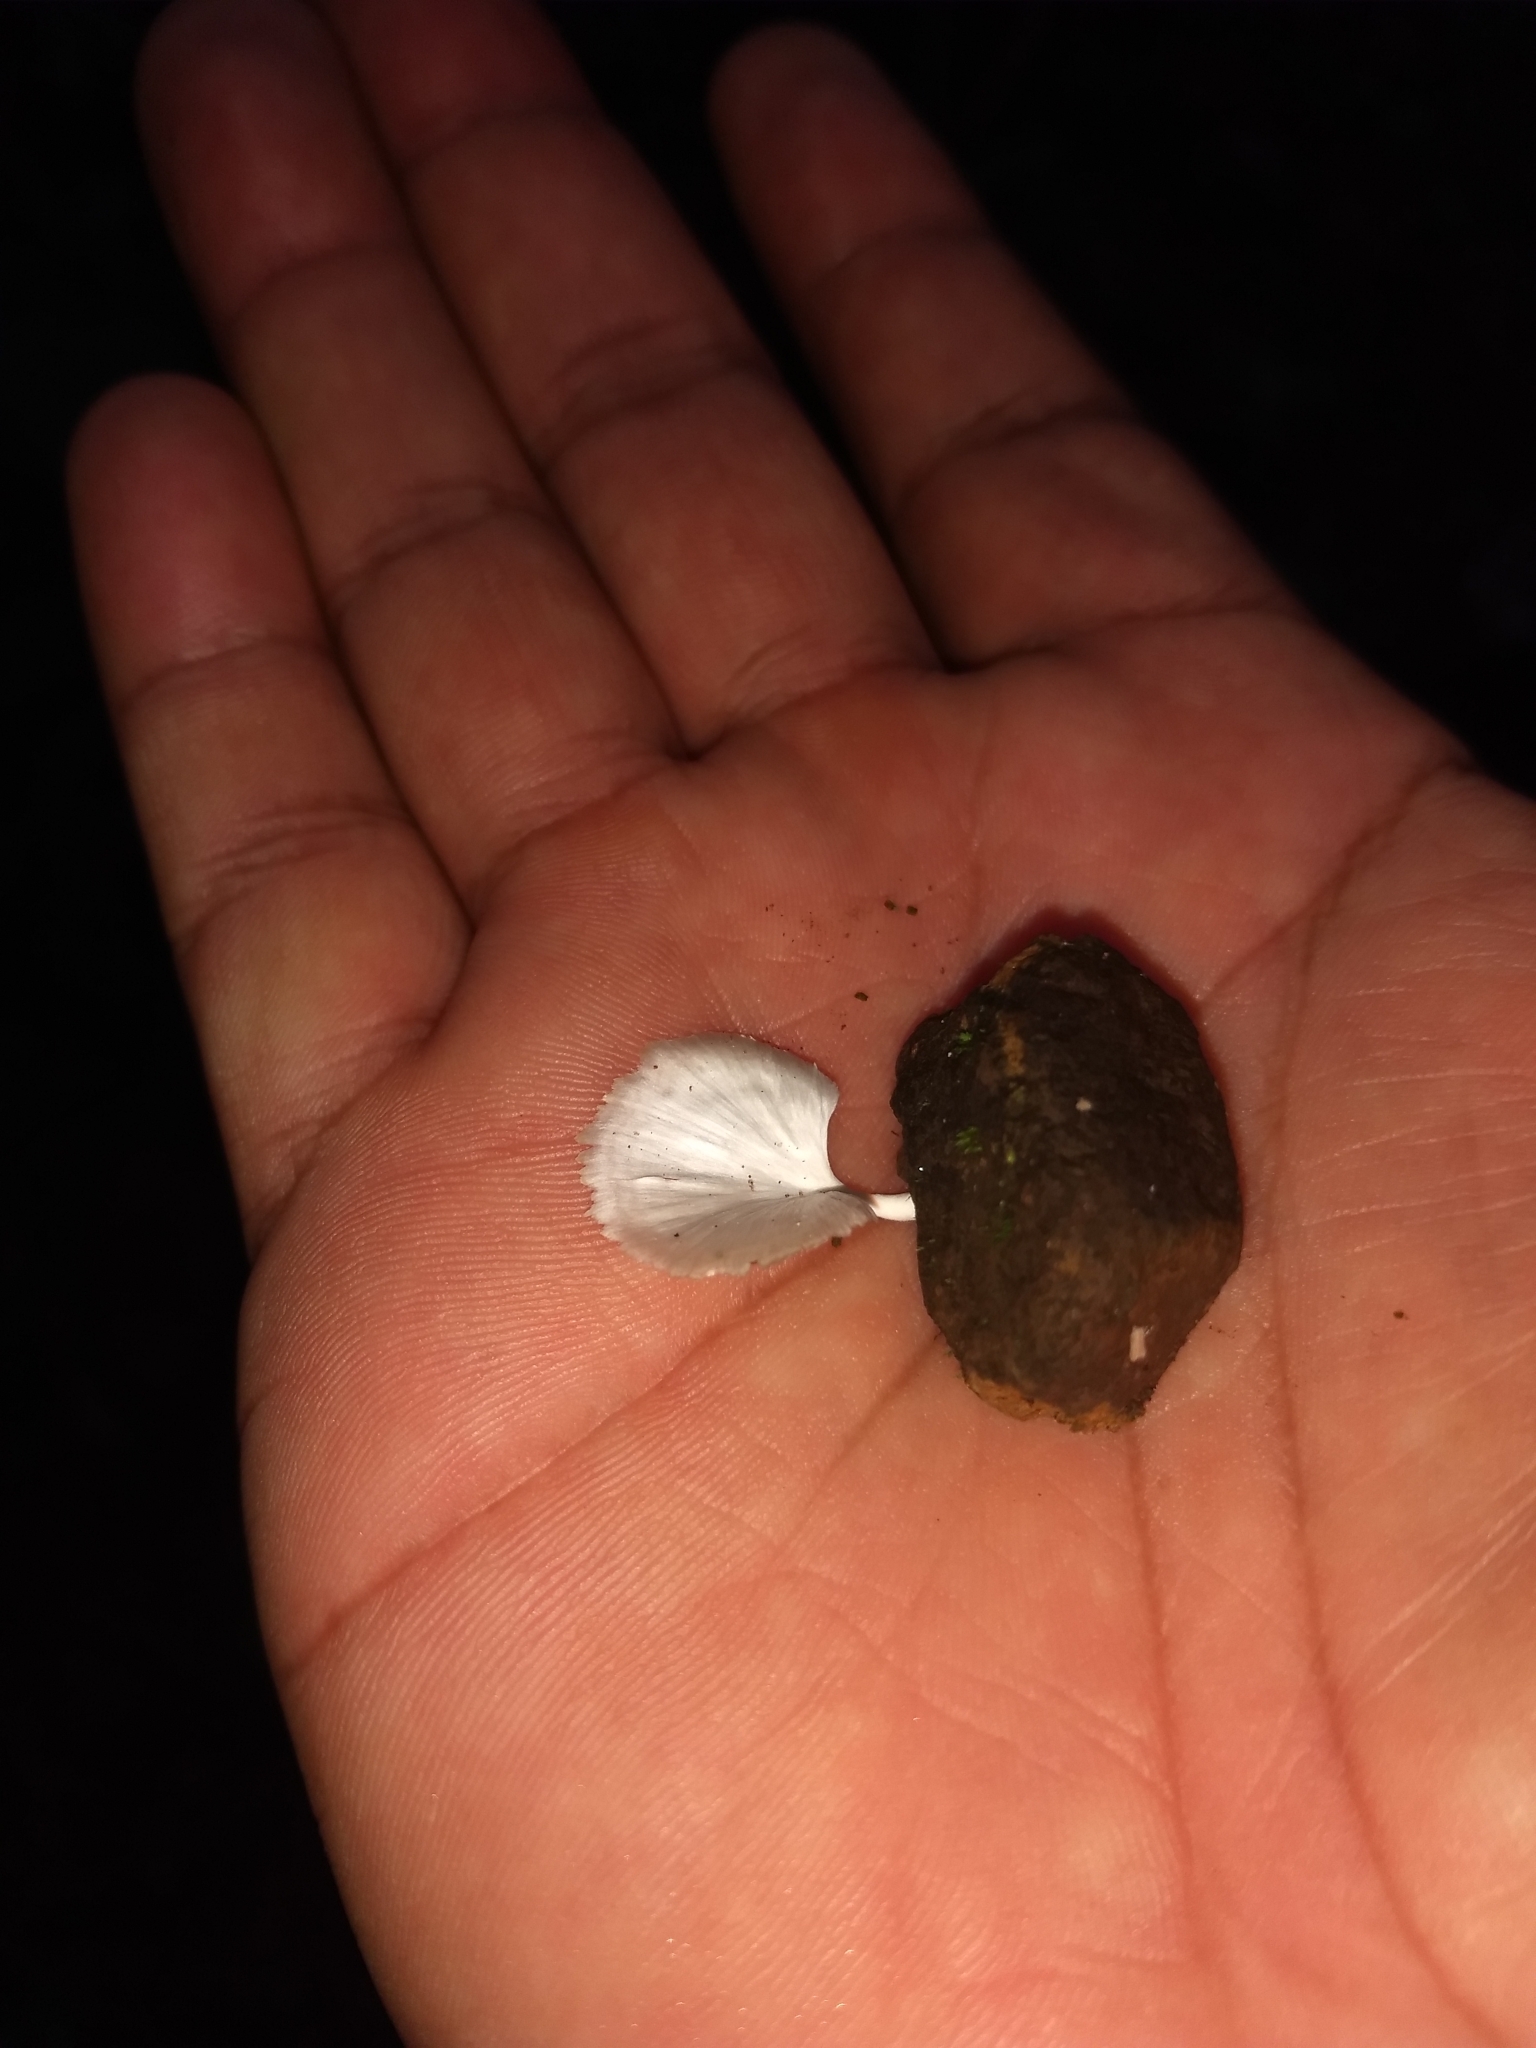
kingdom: Fungi
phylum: Basidiomycota
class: Agaricomycetes
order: Hymenochaetales
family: Rickenellaceae
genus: Cotylidia
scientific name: Cotylidia diaphana
